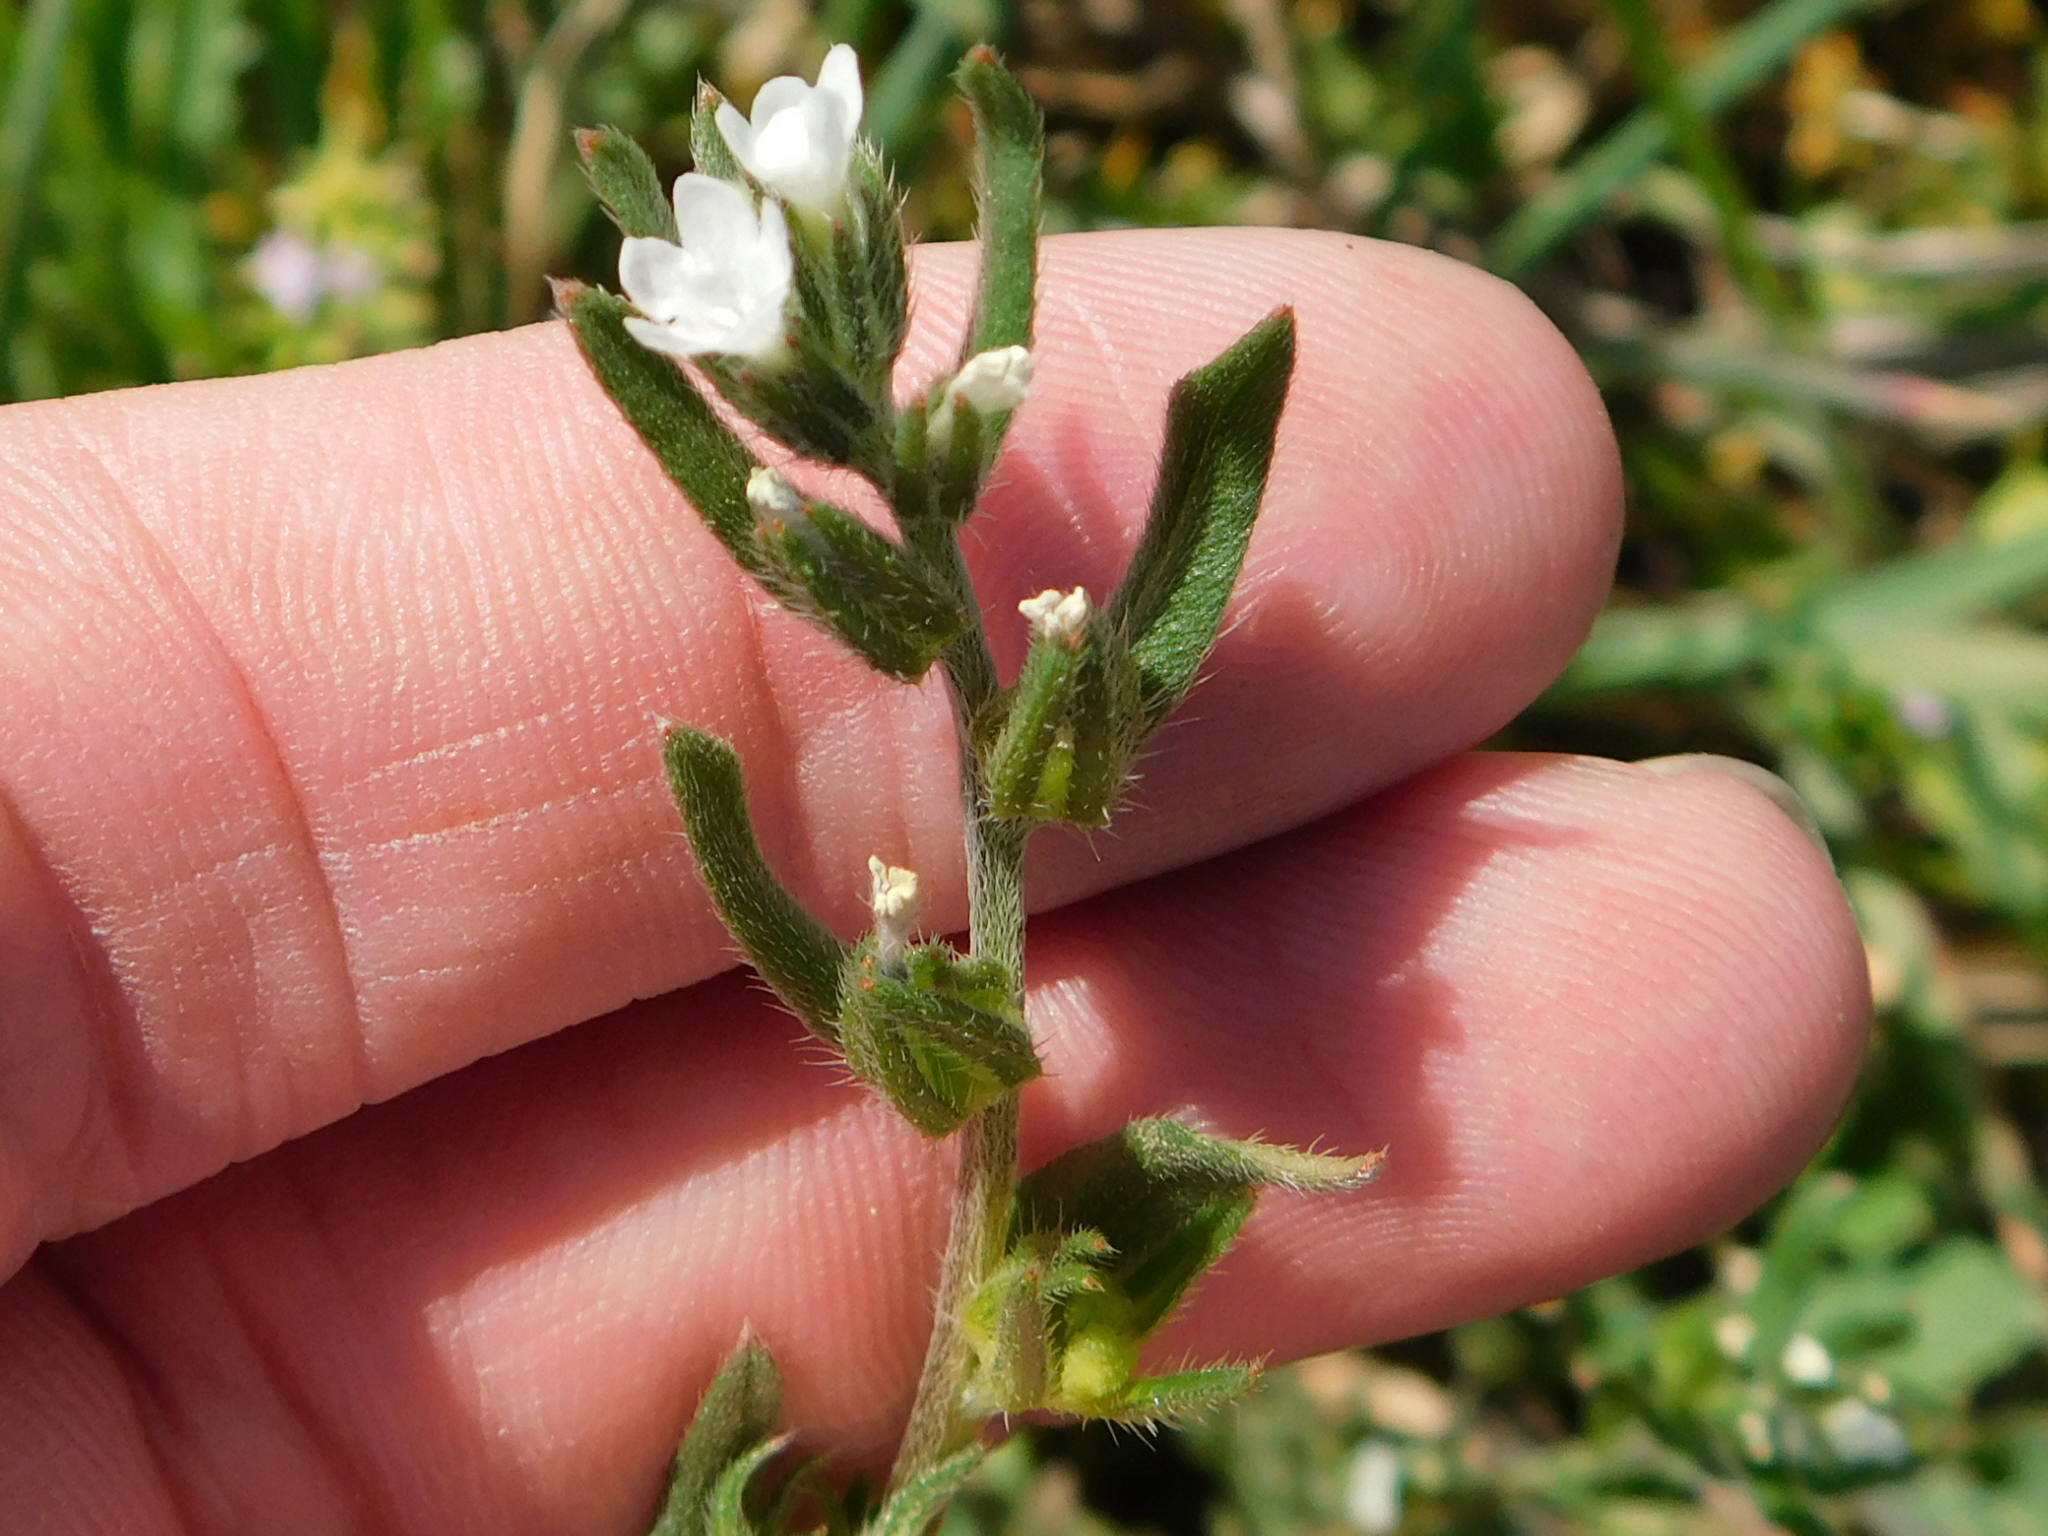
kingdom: Plantae
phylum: Tracheophyta
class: Magnoliopsida
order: Boraginales
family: Boraginaceae
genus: Buglossoides
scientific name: Buglossoides arvensis
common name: Corn gromwell
